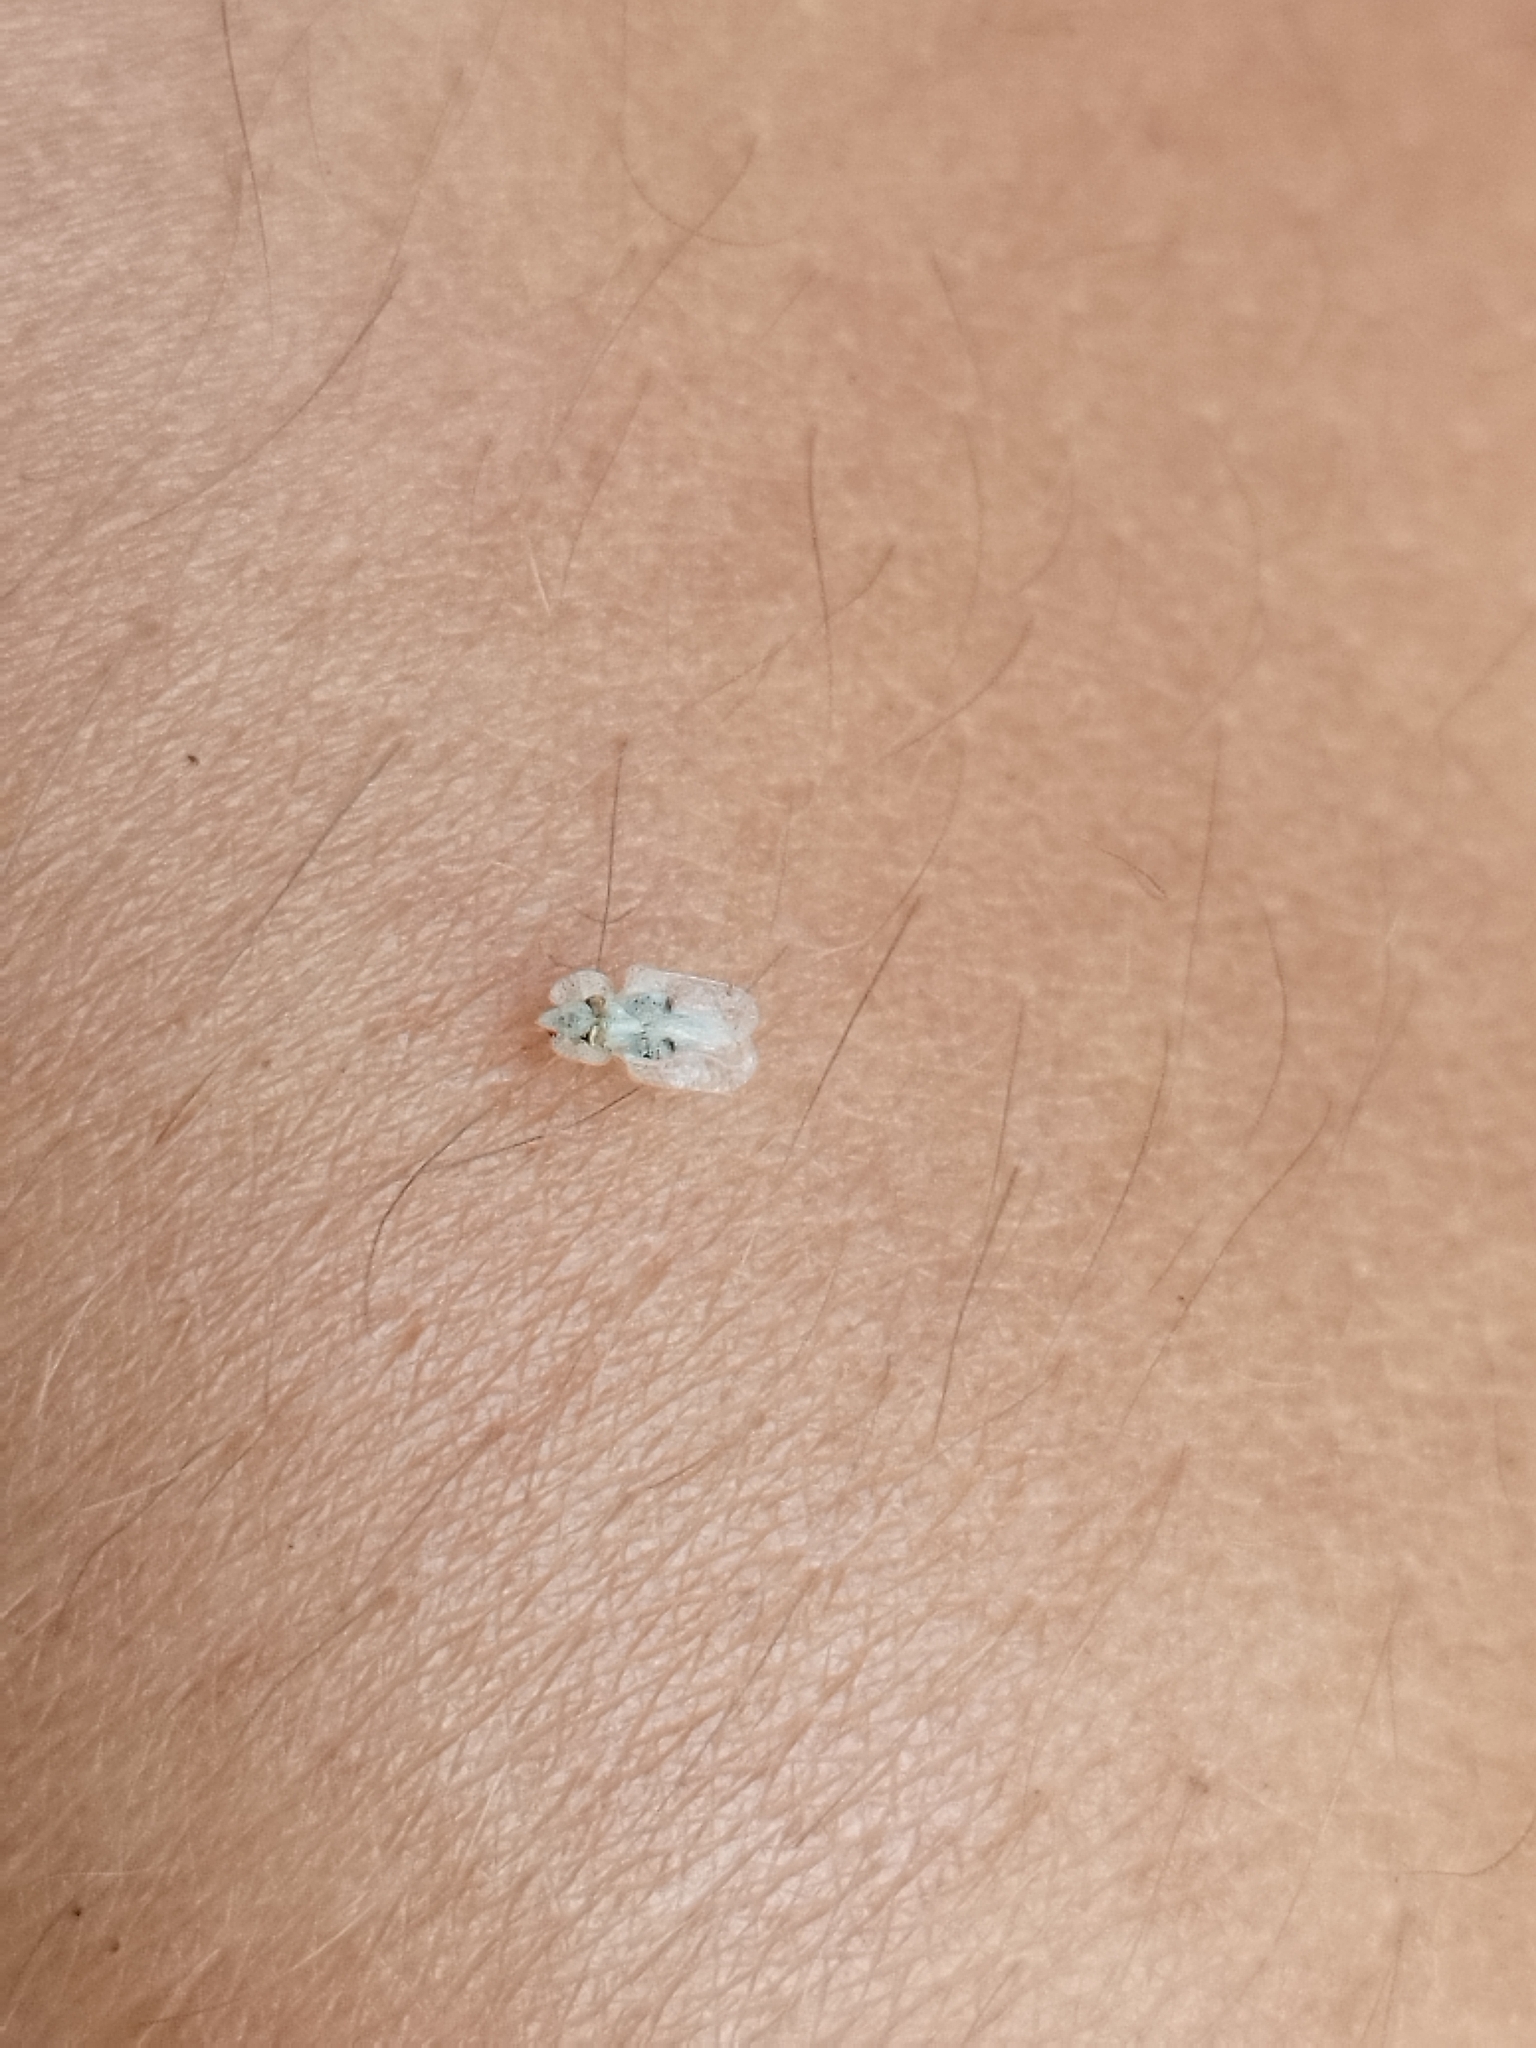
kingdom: Animalia
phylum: Arthropoda
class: Insecta
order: Hemiptera
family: Tingidae
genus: Corythucha
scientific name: Corythucha ciliata
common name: Sycamore lace bug
